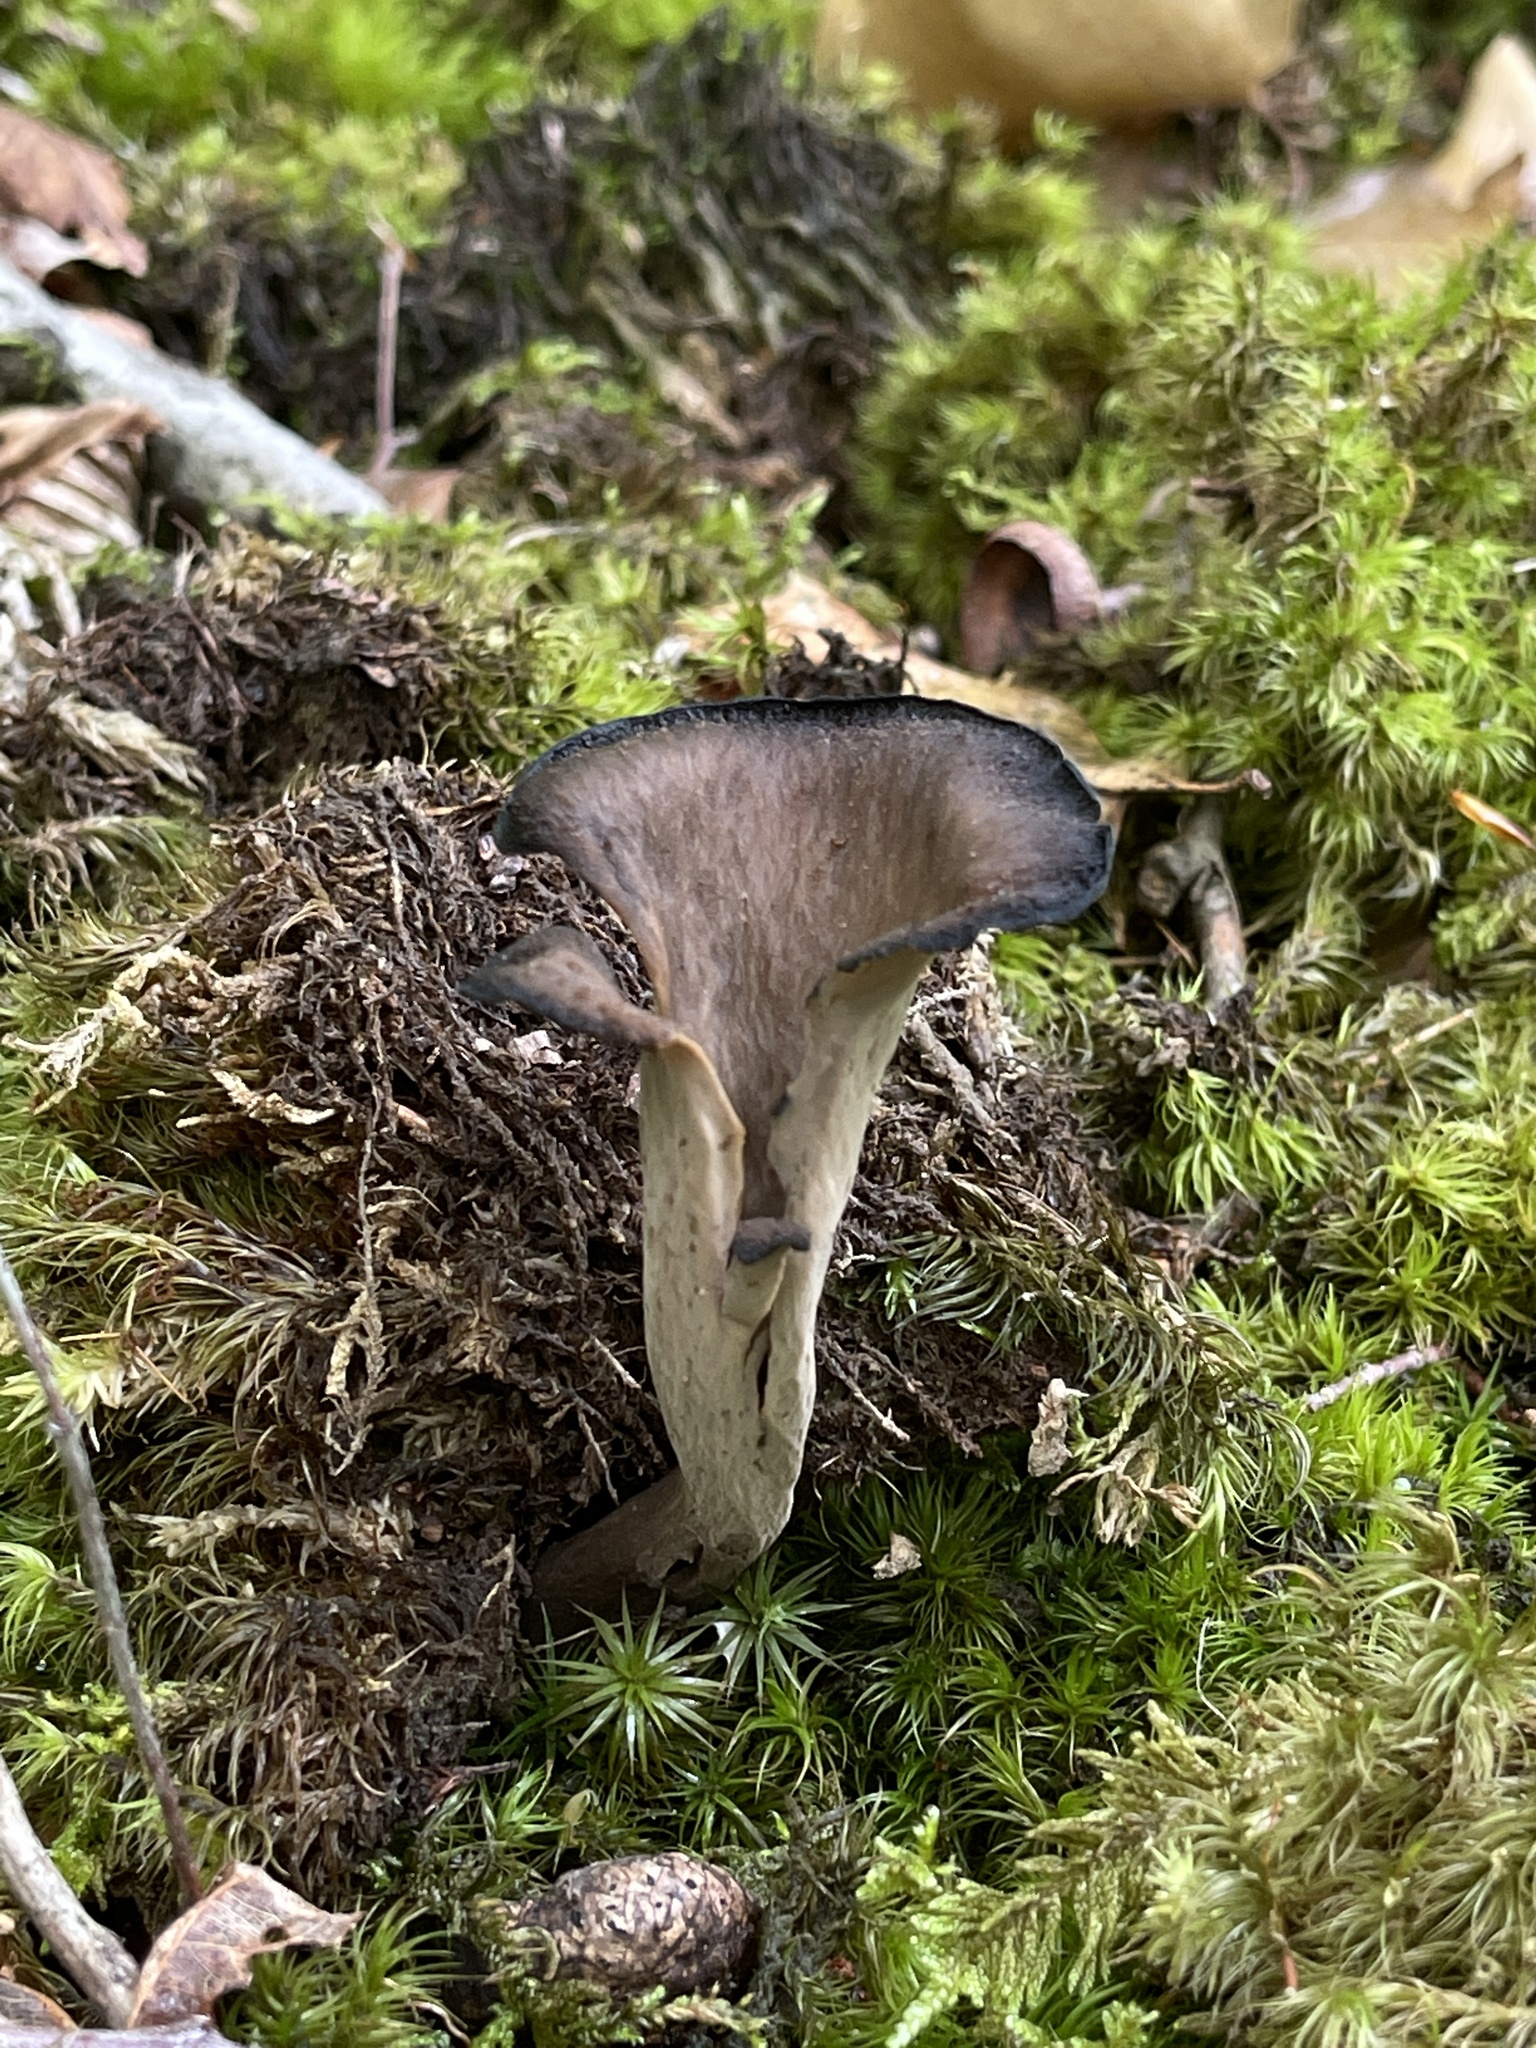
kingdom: Fungi
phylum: Basidiomycota
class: Agaricomycetes
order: Cantharellales
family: Hydnaceae
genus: Craterellus
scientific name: Craterellus cornucopioides
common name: Horn of plenty
